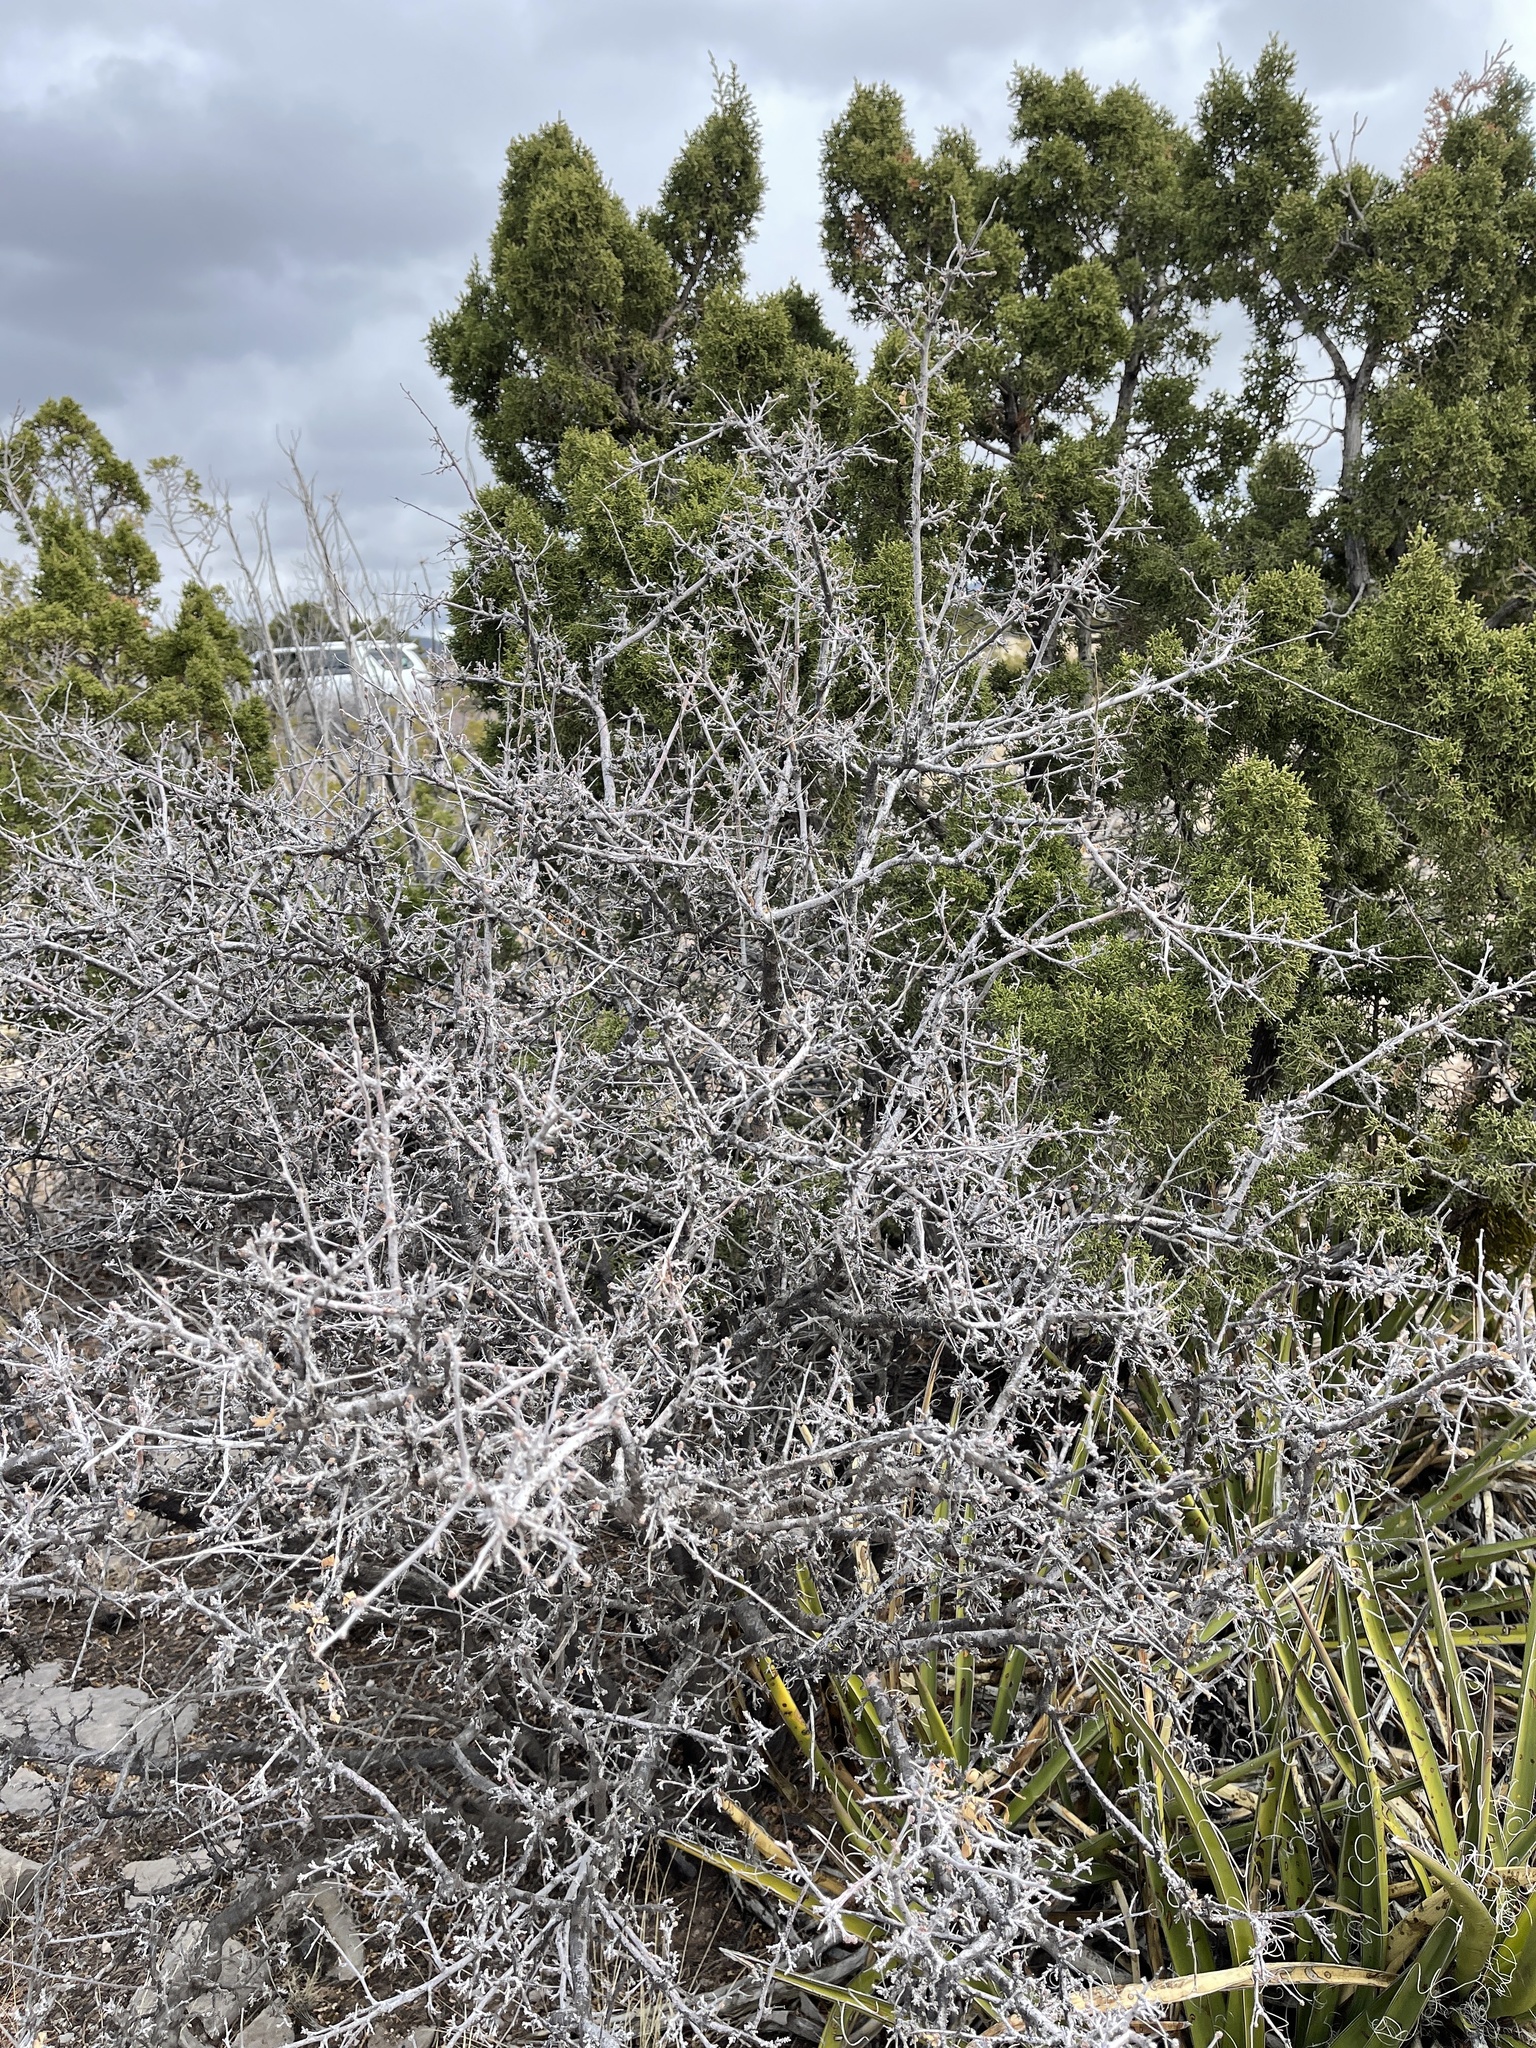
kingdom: Plantae
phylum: Tracheophyta
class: Magnoliopsida
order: Sapindales
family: Anacardiaceae
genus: Rhus
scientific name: Rhus microphylla
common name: Desert sumac
